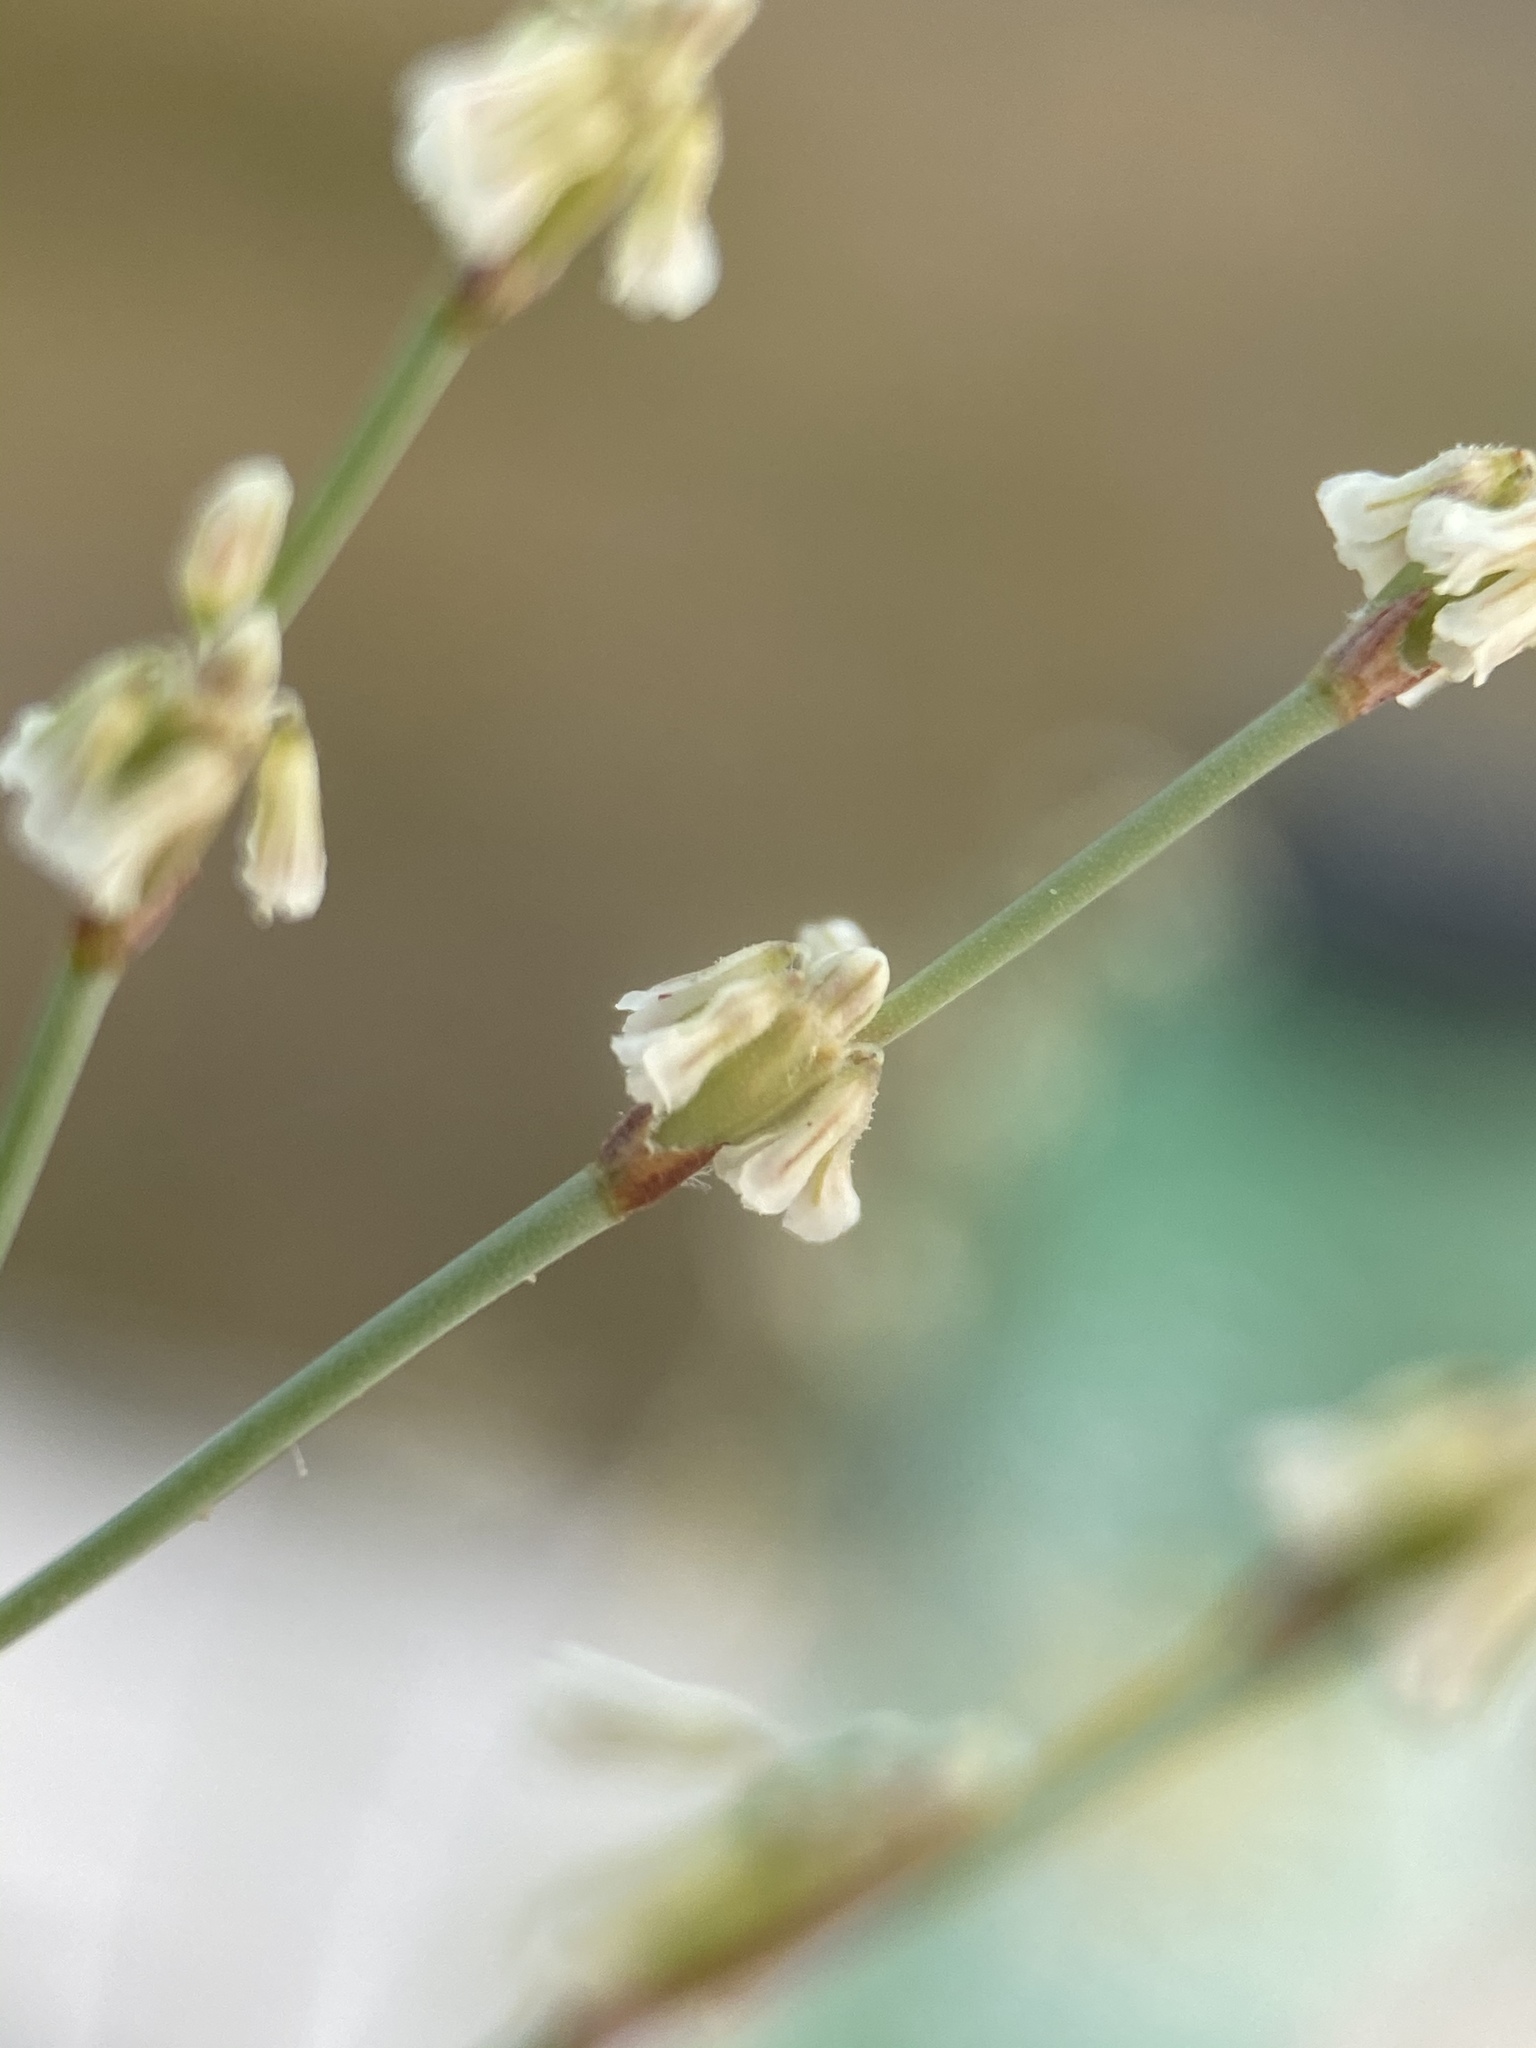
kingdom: Plantae
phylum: Tracheophyta
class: Magnoliopsida
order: Caryophyllales
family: Polygonaceae
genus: Eriogonum
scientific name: Eriogonum baileyi
